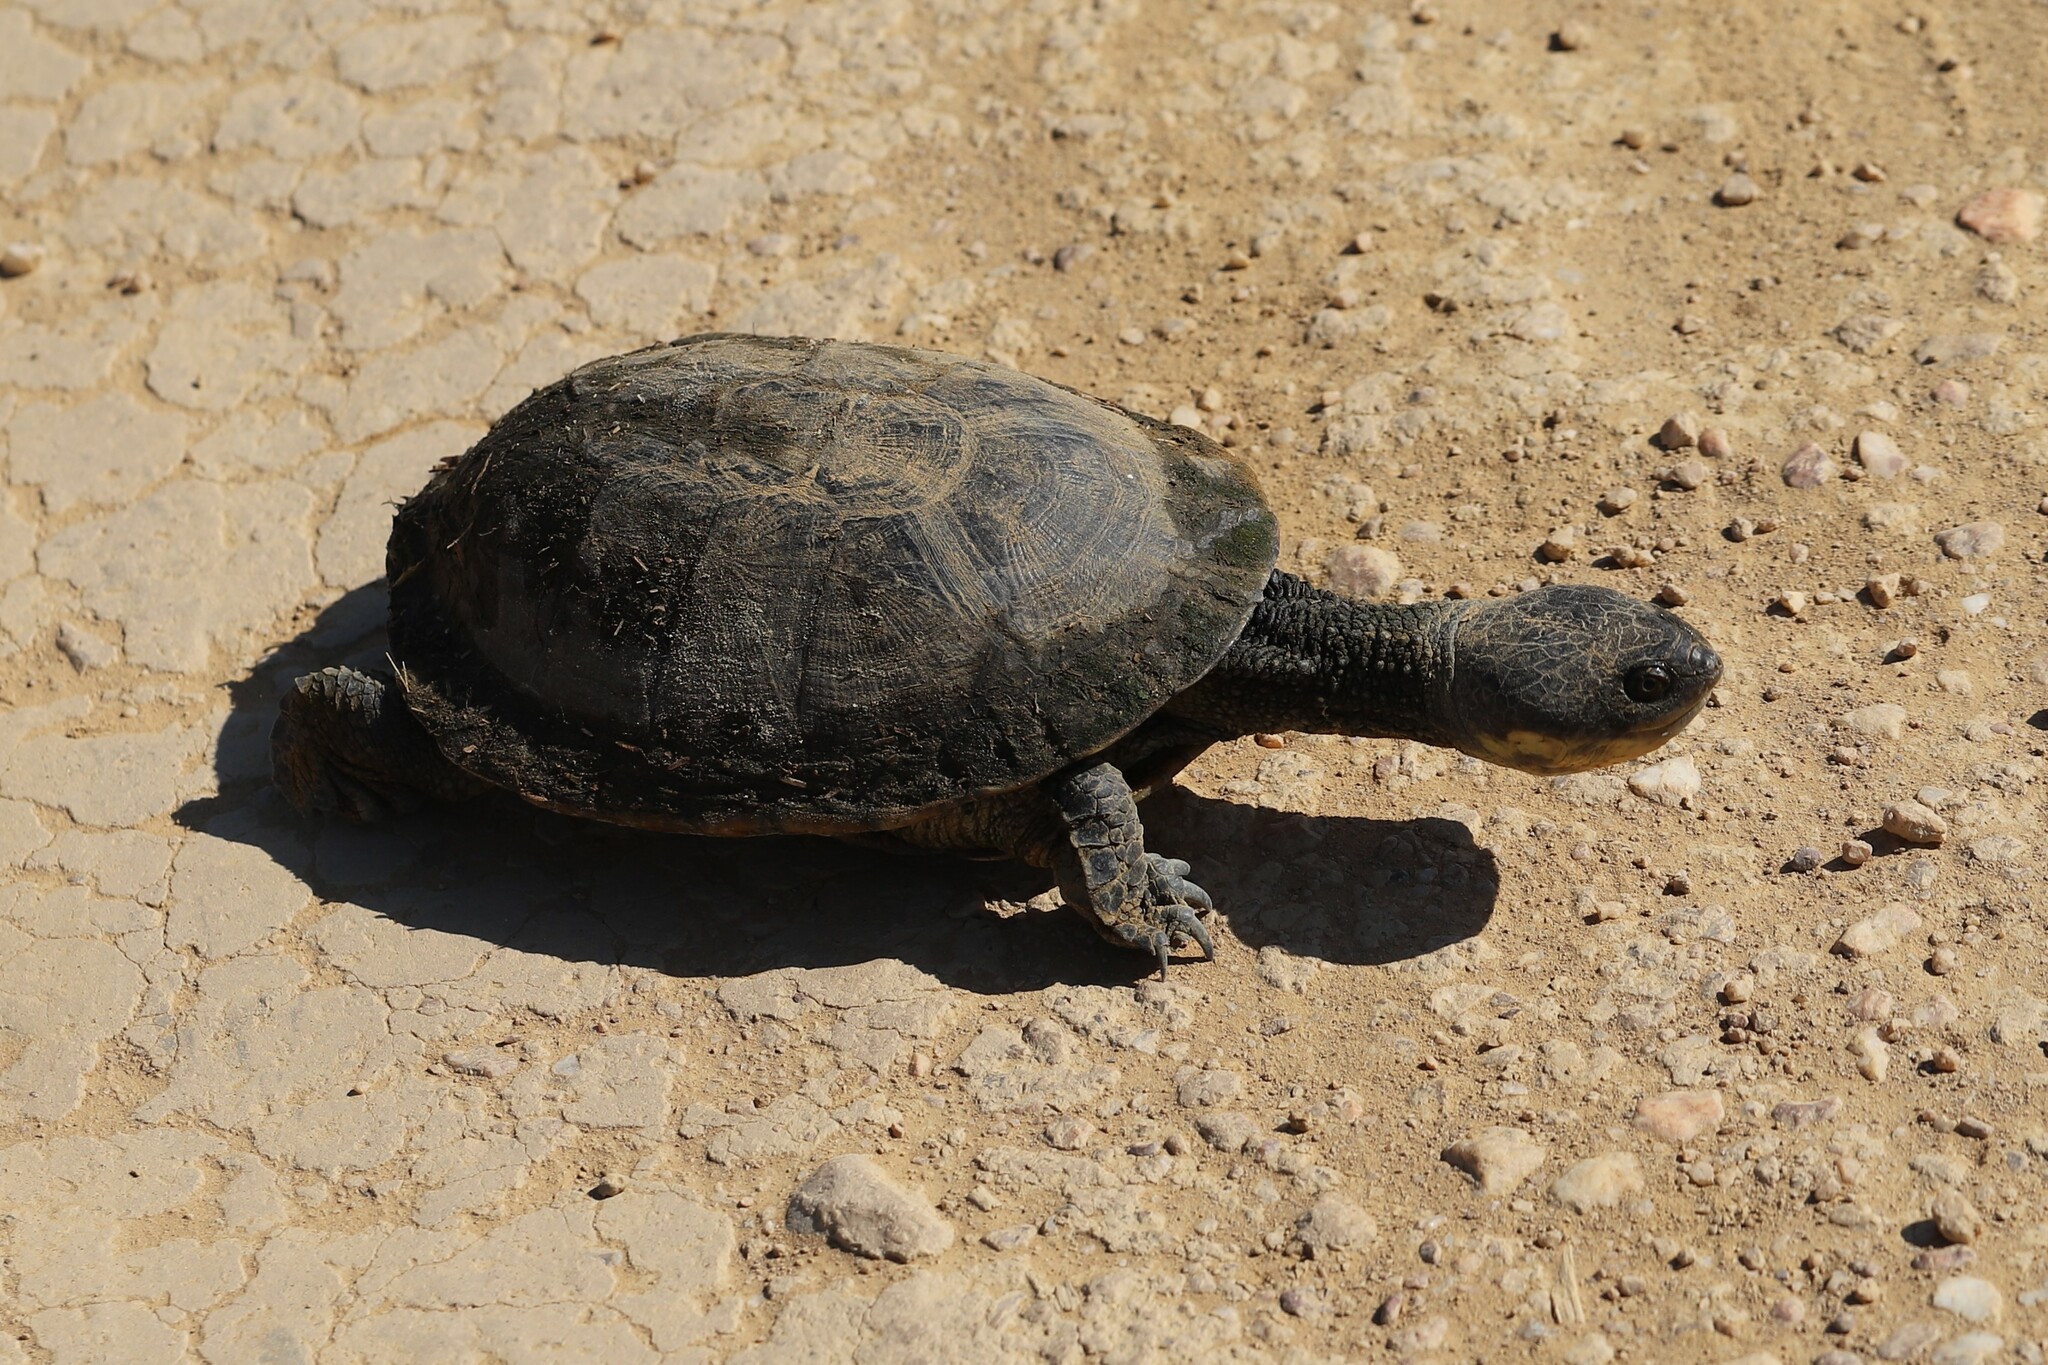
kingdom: Animalia
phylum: Chordata
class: Testudines
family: Chelidae
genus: Acanthochelys
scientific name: Acanthochelys macrocephala
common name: Pantanal swamp turtle
